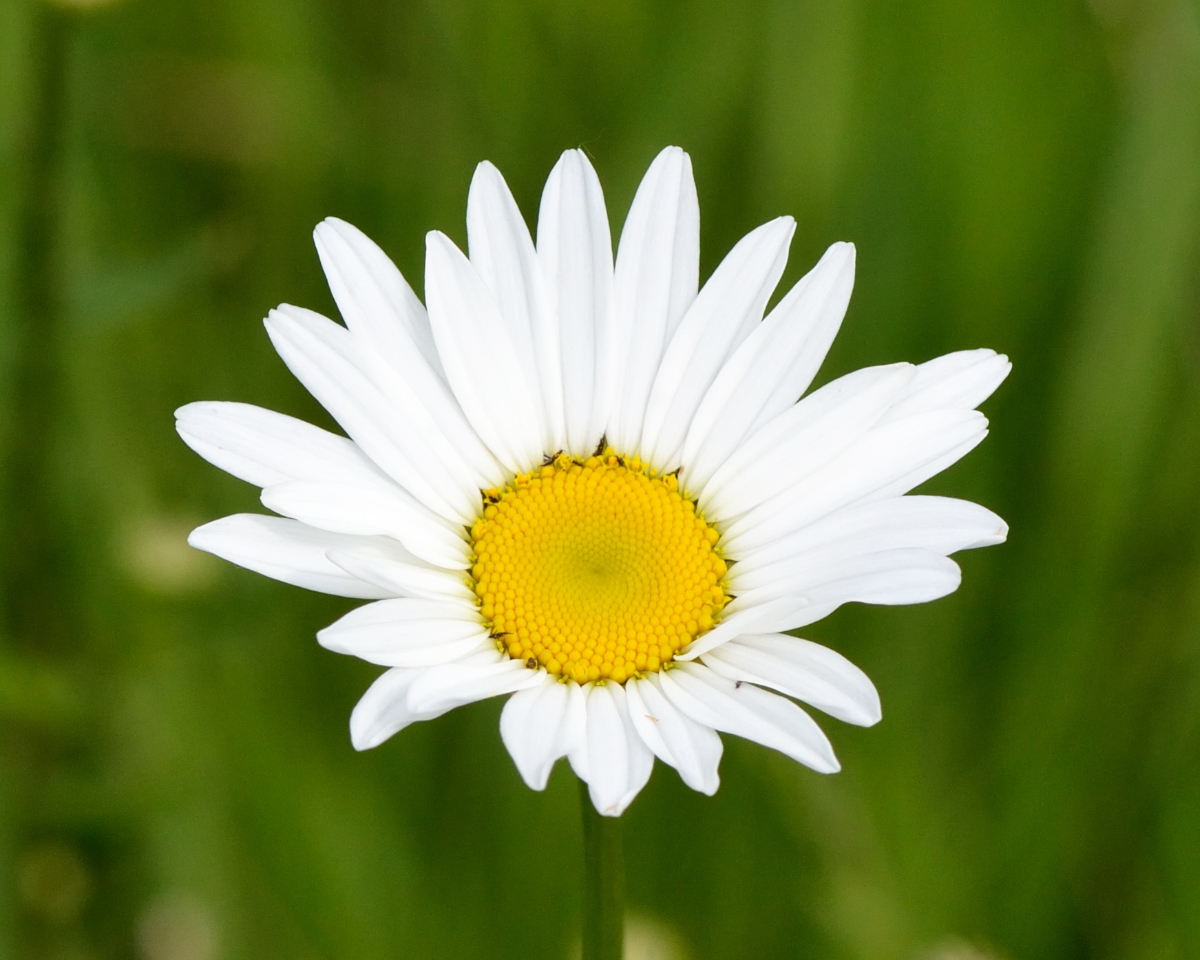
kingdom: Plantae
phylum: Tracheophyta
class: Magnoliopsida
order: Asterales
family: Asteraceae
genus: Leucanthemum
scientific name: Leucanthemum vulgare
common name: Oxeye daisy
